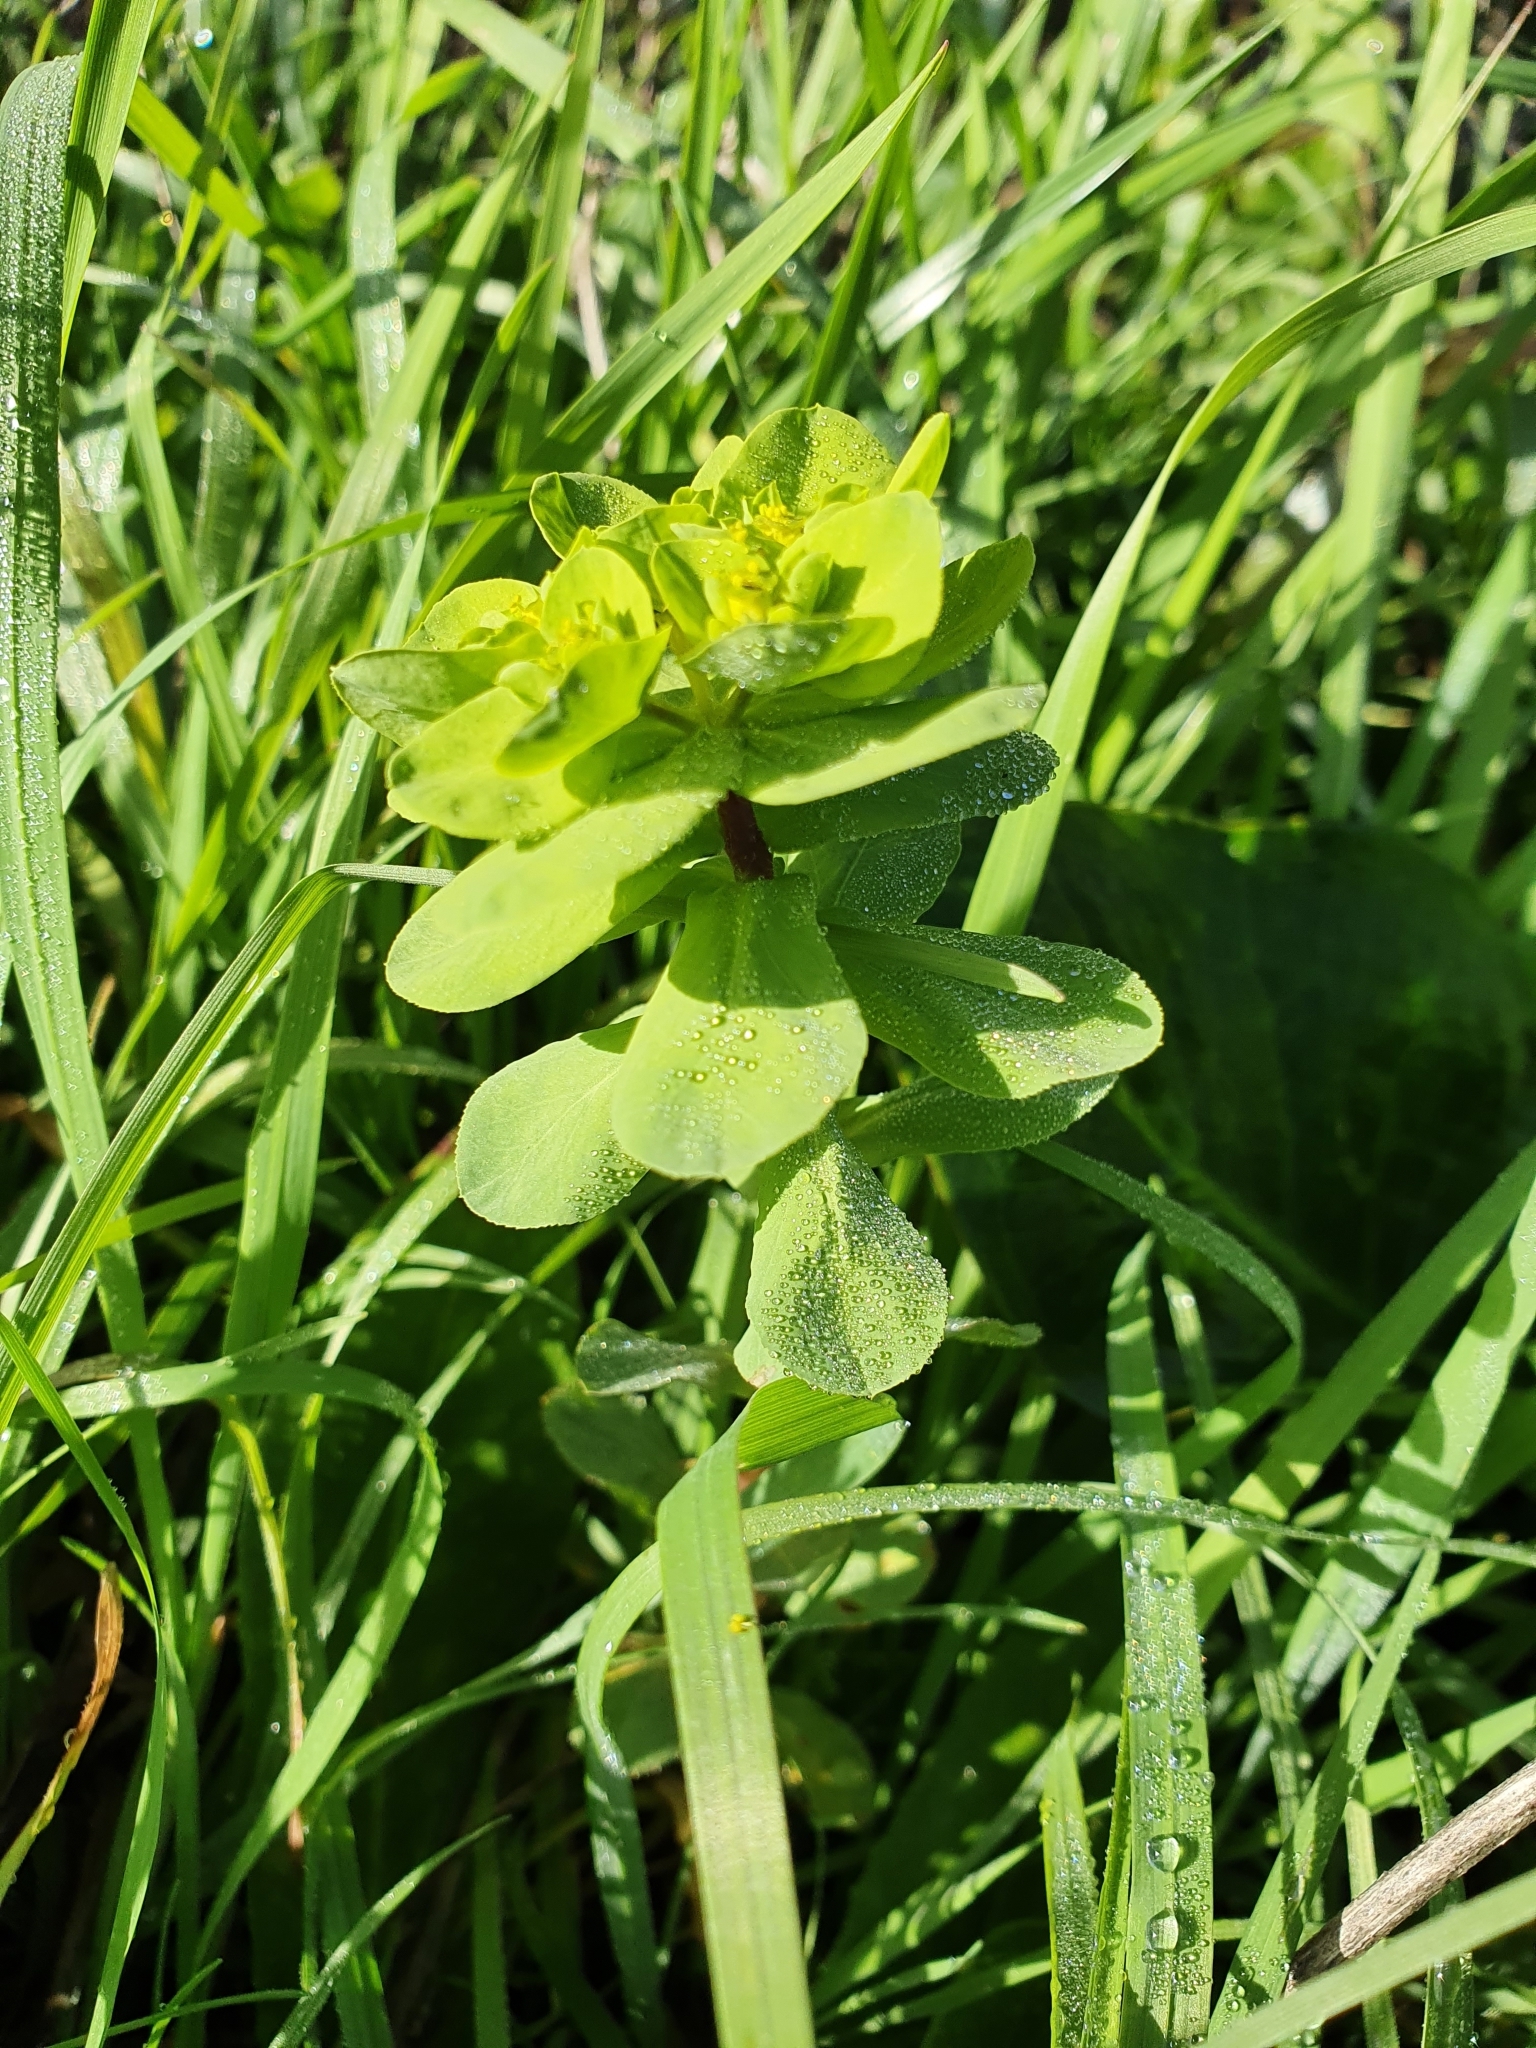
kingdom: Plantae
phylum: Tracheophyta
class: Magnoliopsida
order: Malpighiales
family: Euphorbiaceae
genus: Euphorbia
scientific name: Euphorbia helioscopia
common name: Sun spurge
